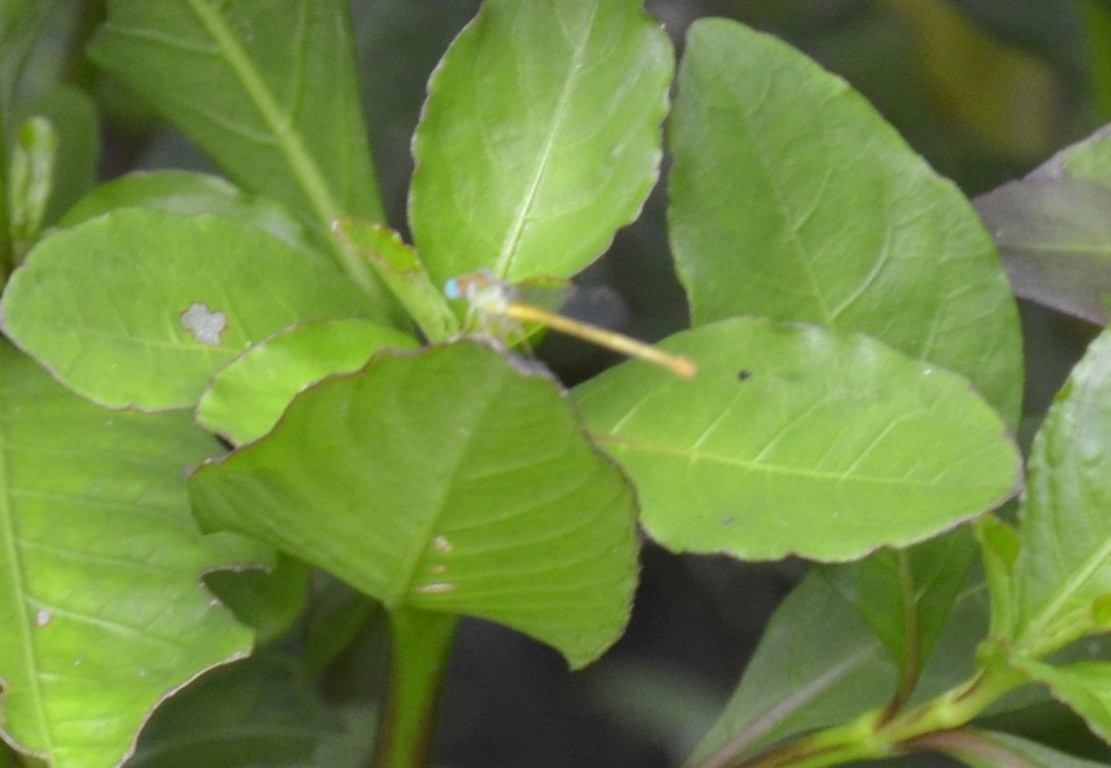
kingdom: Animalia
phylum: Arthropoda
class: Insecta
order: Odonata
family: Coenagrionidae
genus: Ceriagrion
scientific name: Ceriagrion coromandelianum
